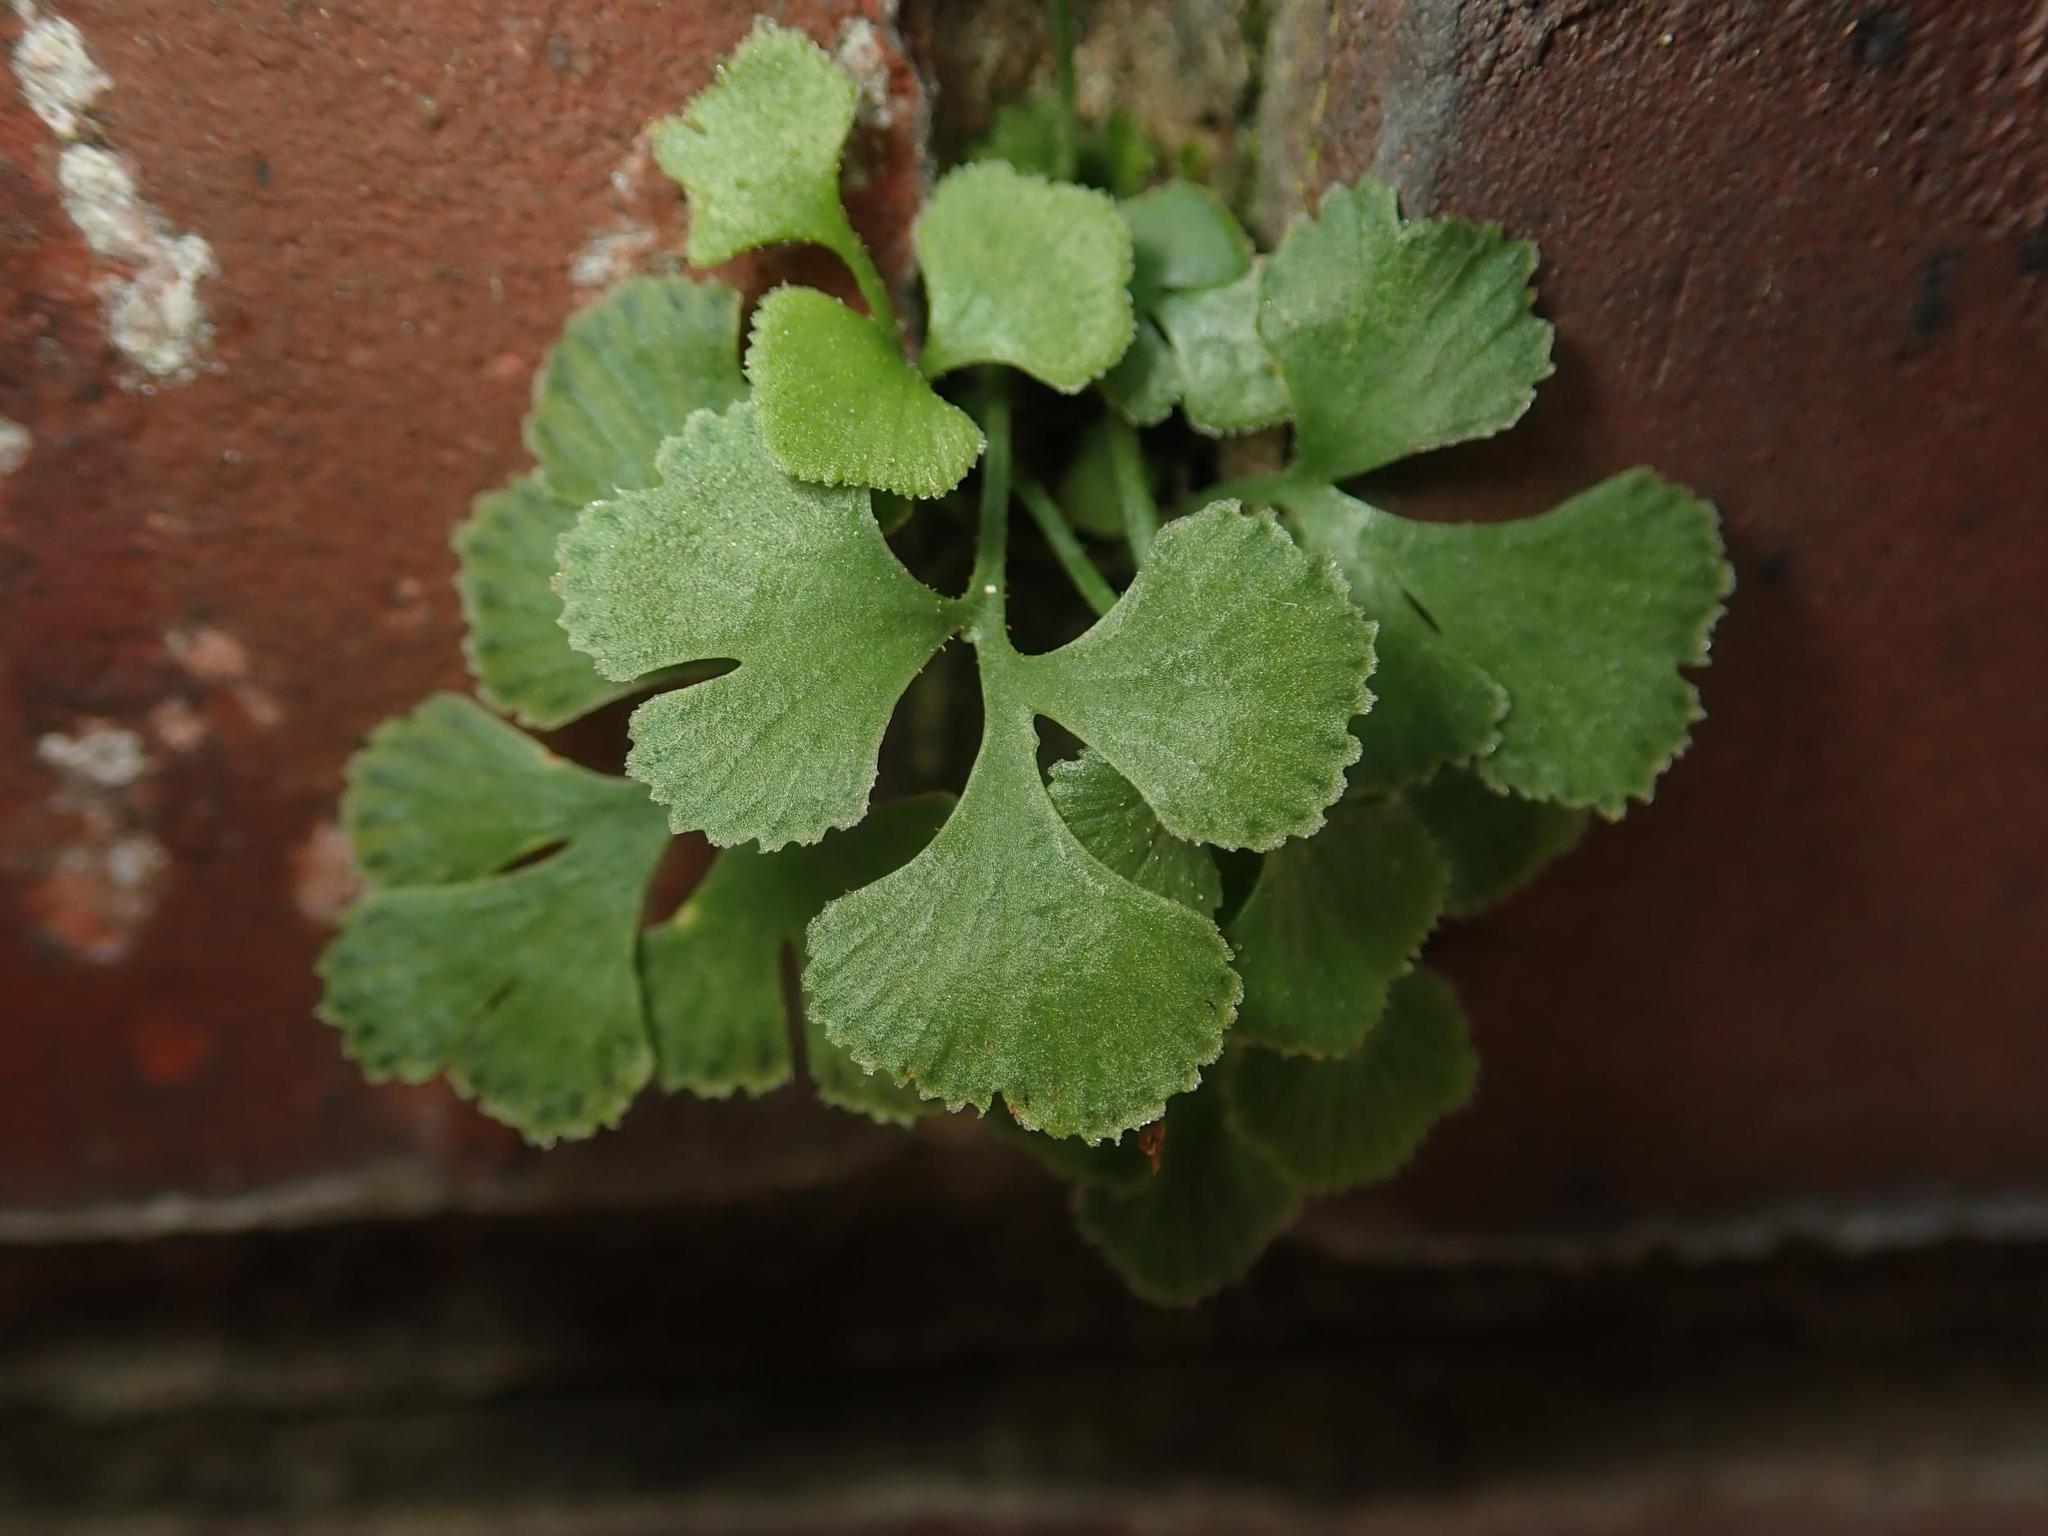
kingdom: Plantae
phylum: Tracheophyta
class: Polypodiopsida
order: Polypodiales
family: Aspleniaceae
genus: Asplenium
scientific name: Asplenium ruta-muraria
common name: Wall-rue
